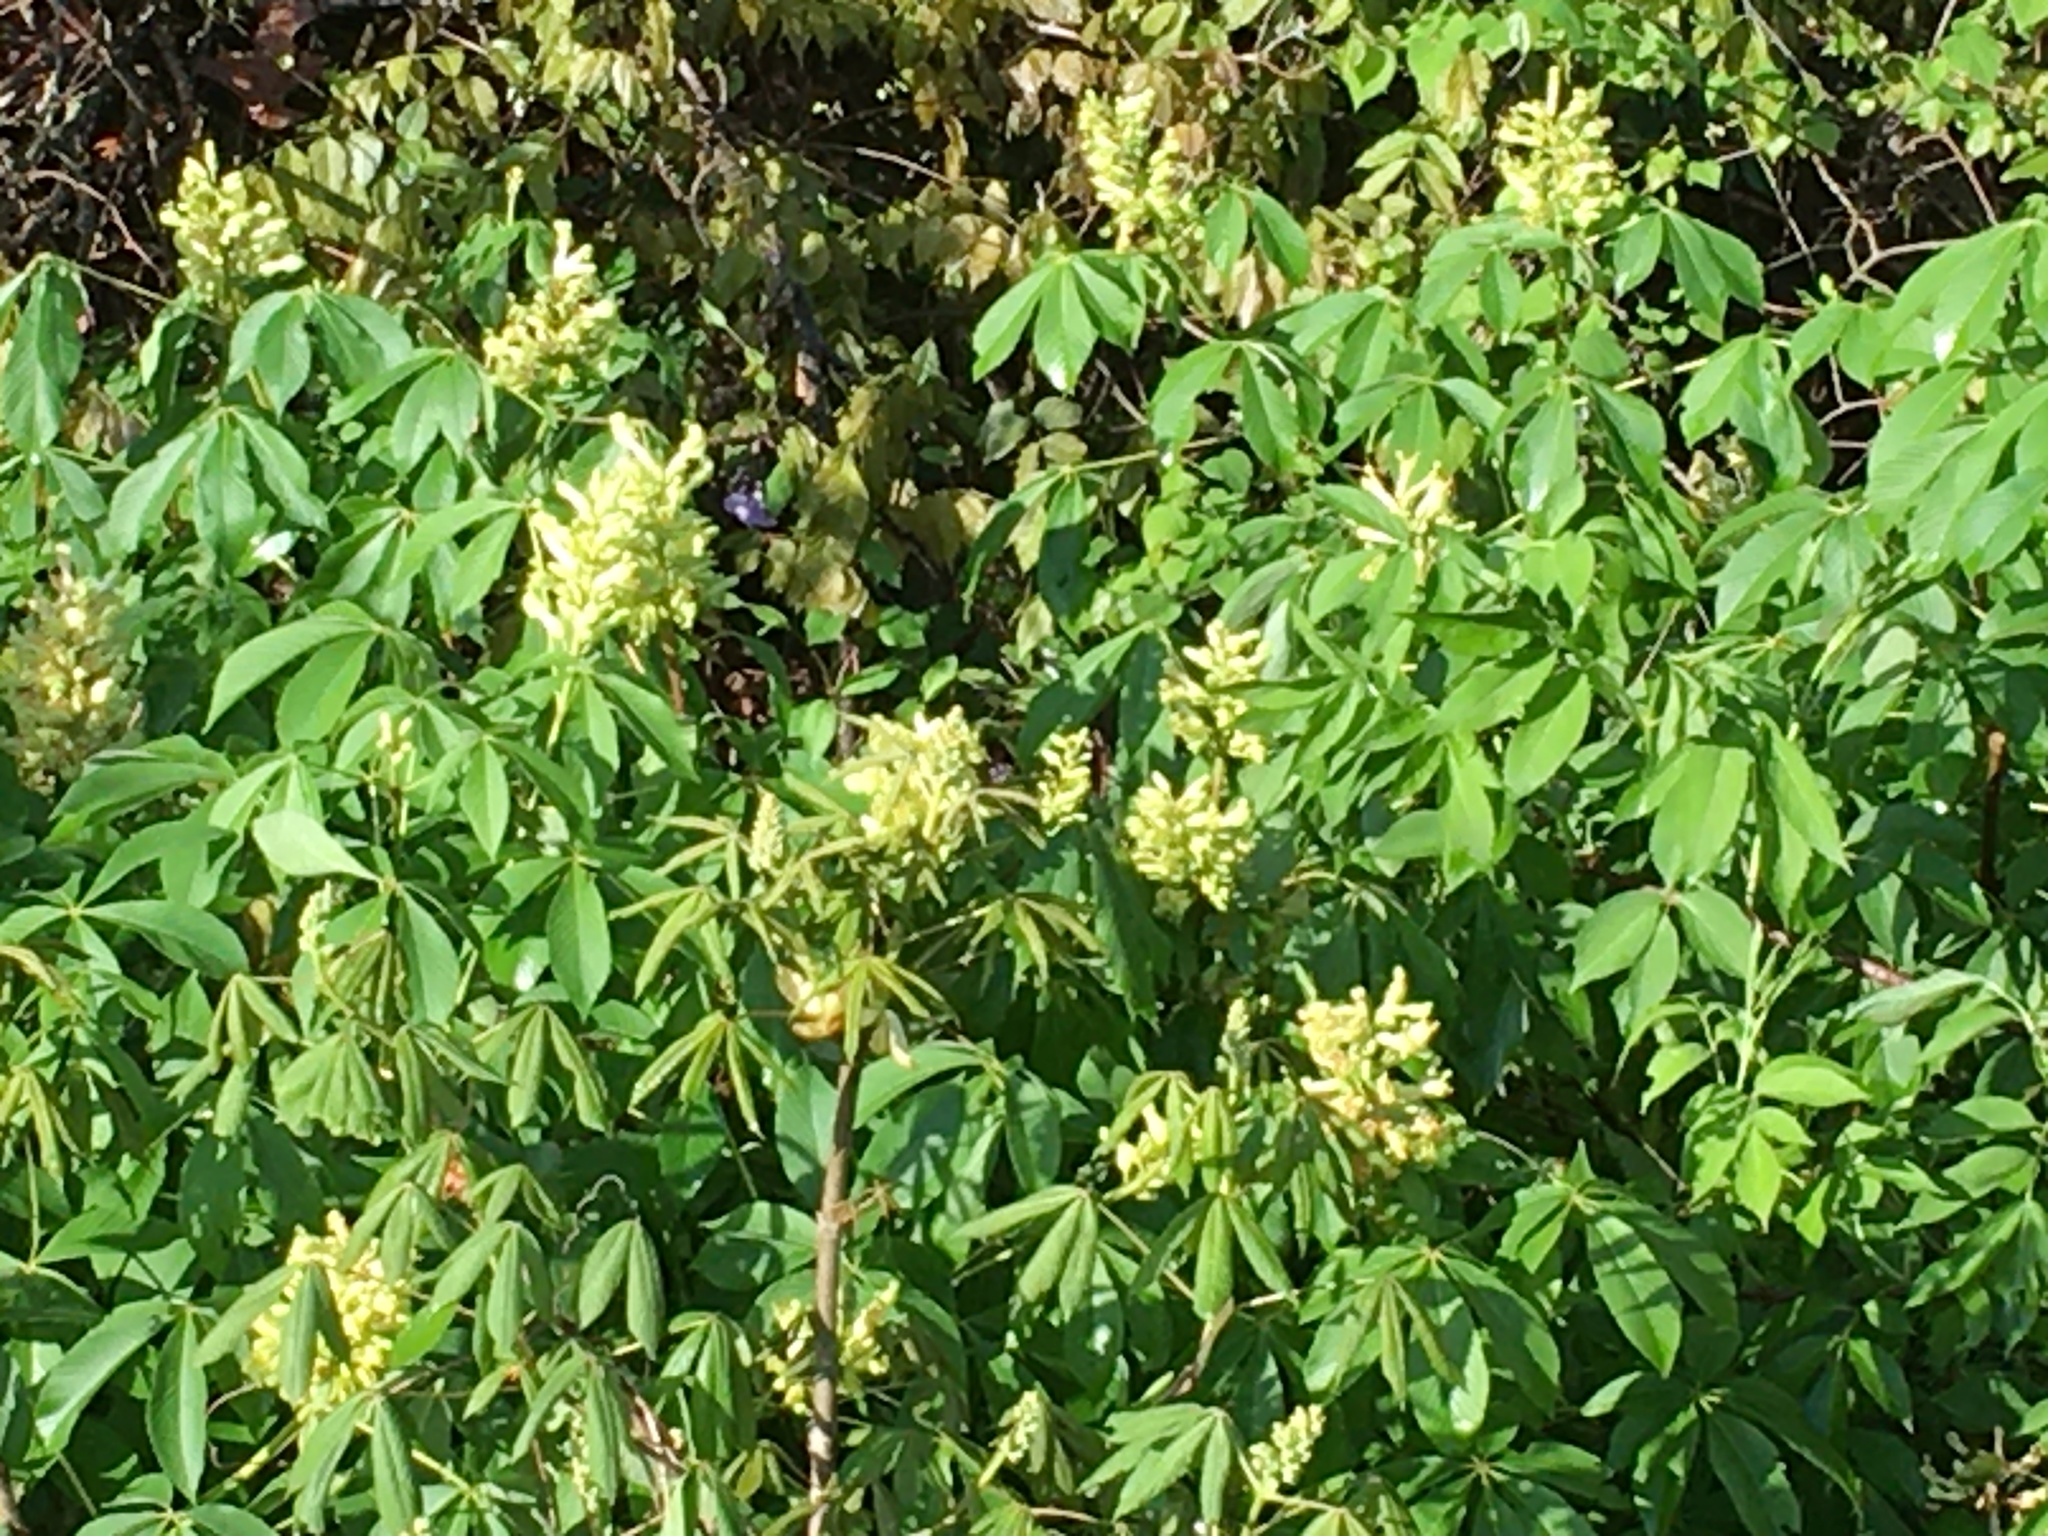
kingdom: Plantae
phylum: Tracheophyta
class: Magnoliopsida
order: Sapindales
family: Sapindaceae
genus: Aesculus
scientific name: Aesculus sylvatica
